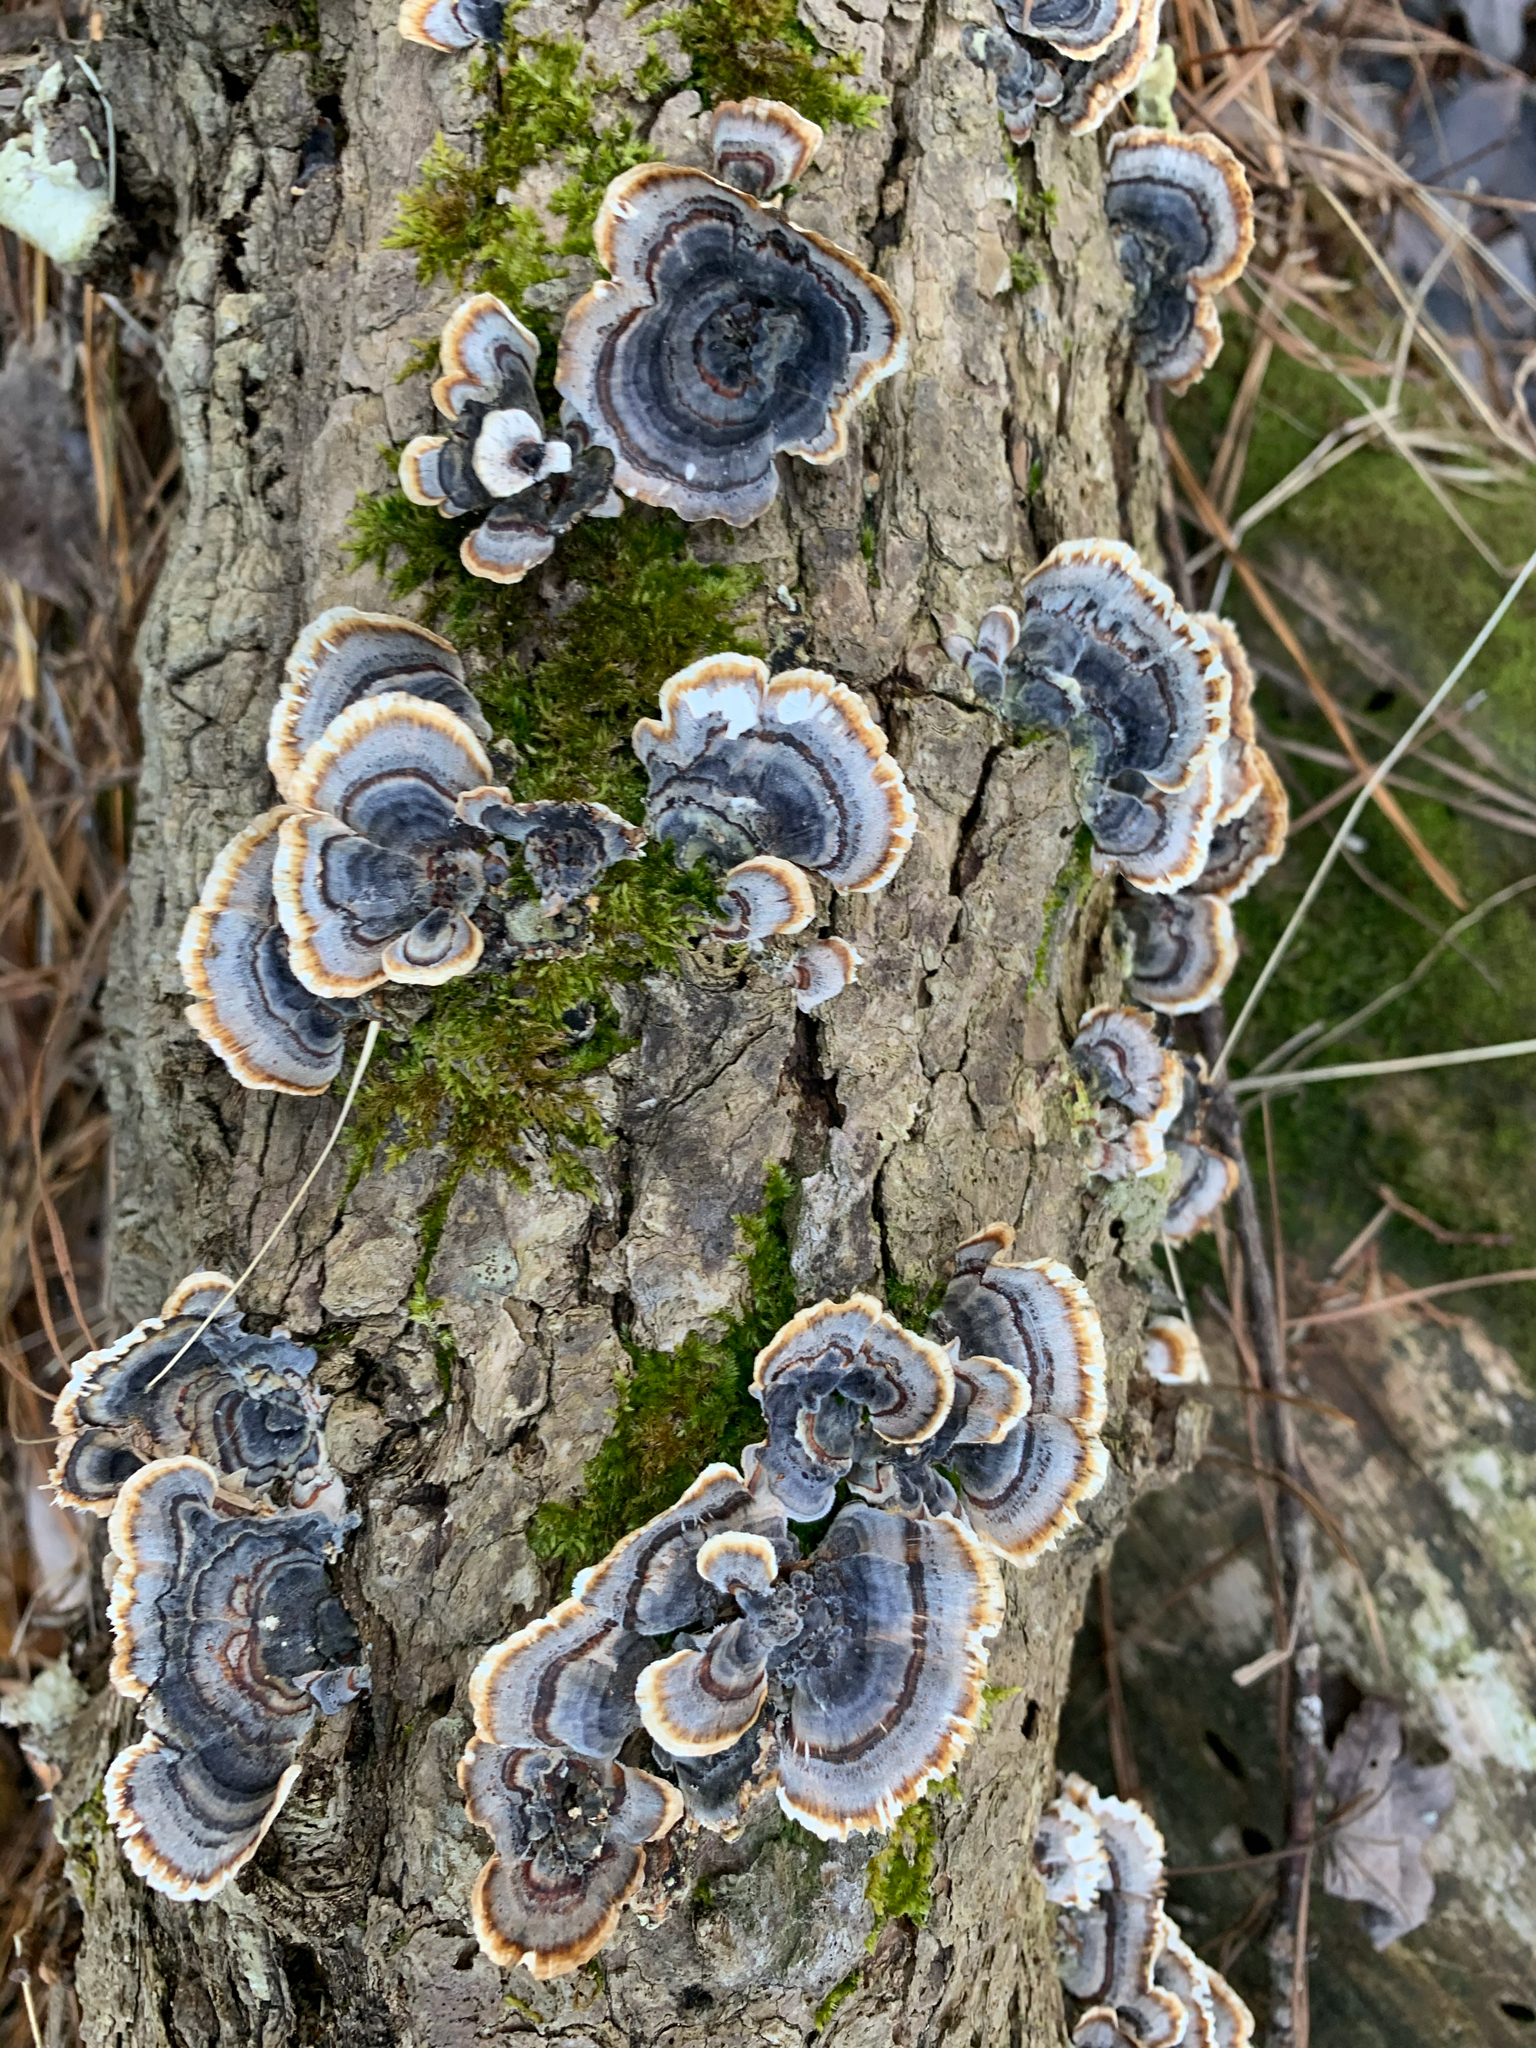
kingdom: Fungi
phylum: Basidiomycota
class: Agaricomycetes
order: Polyporales
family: Polyporaceae
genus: Trametes
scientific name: Trametes versicolor
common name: Turkeytail
